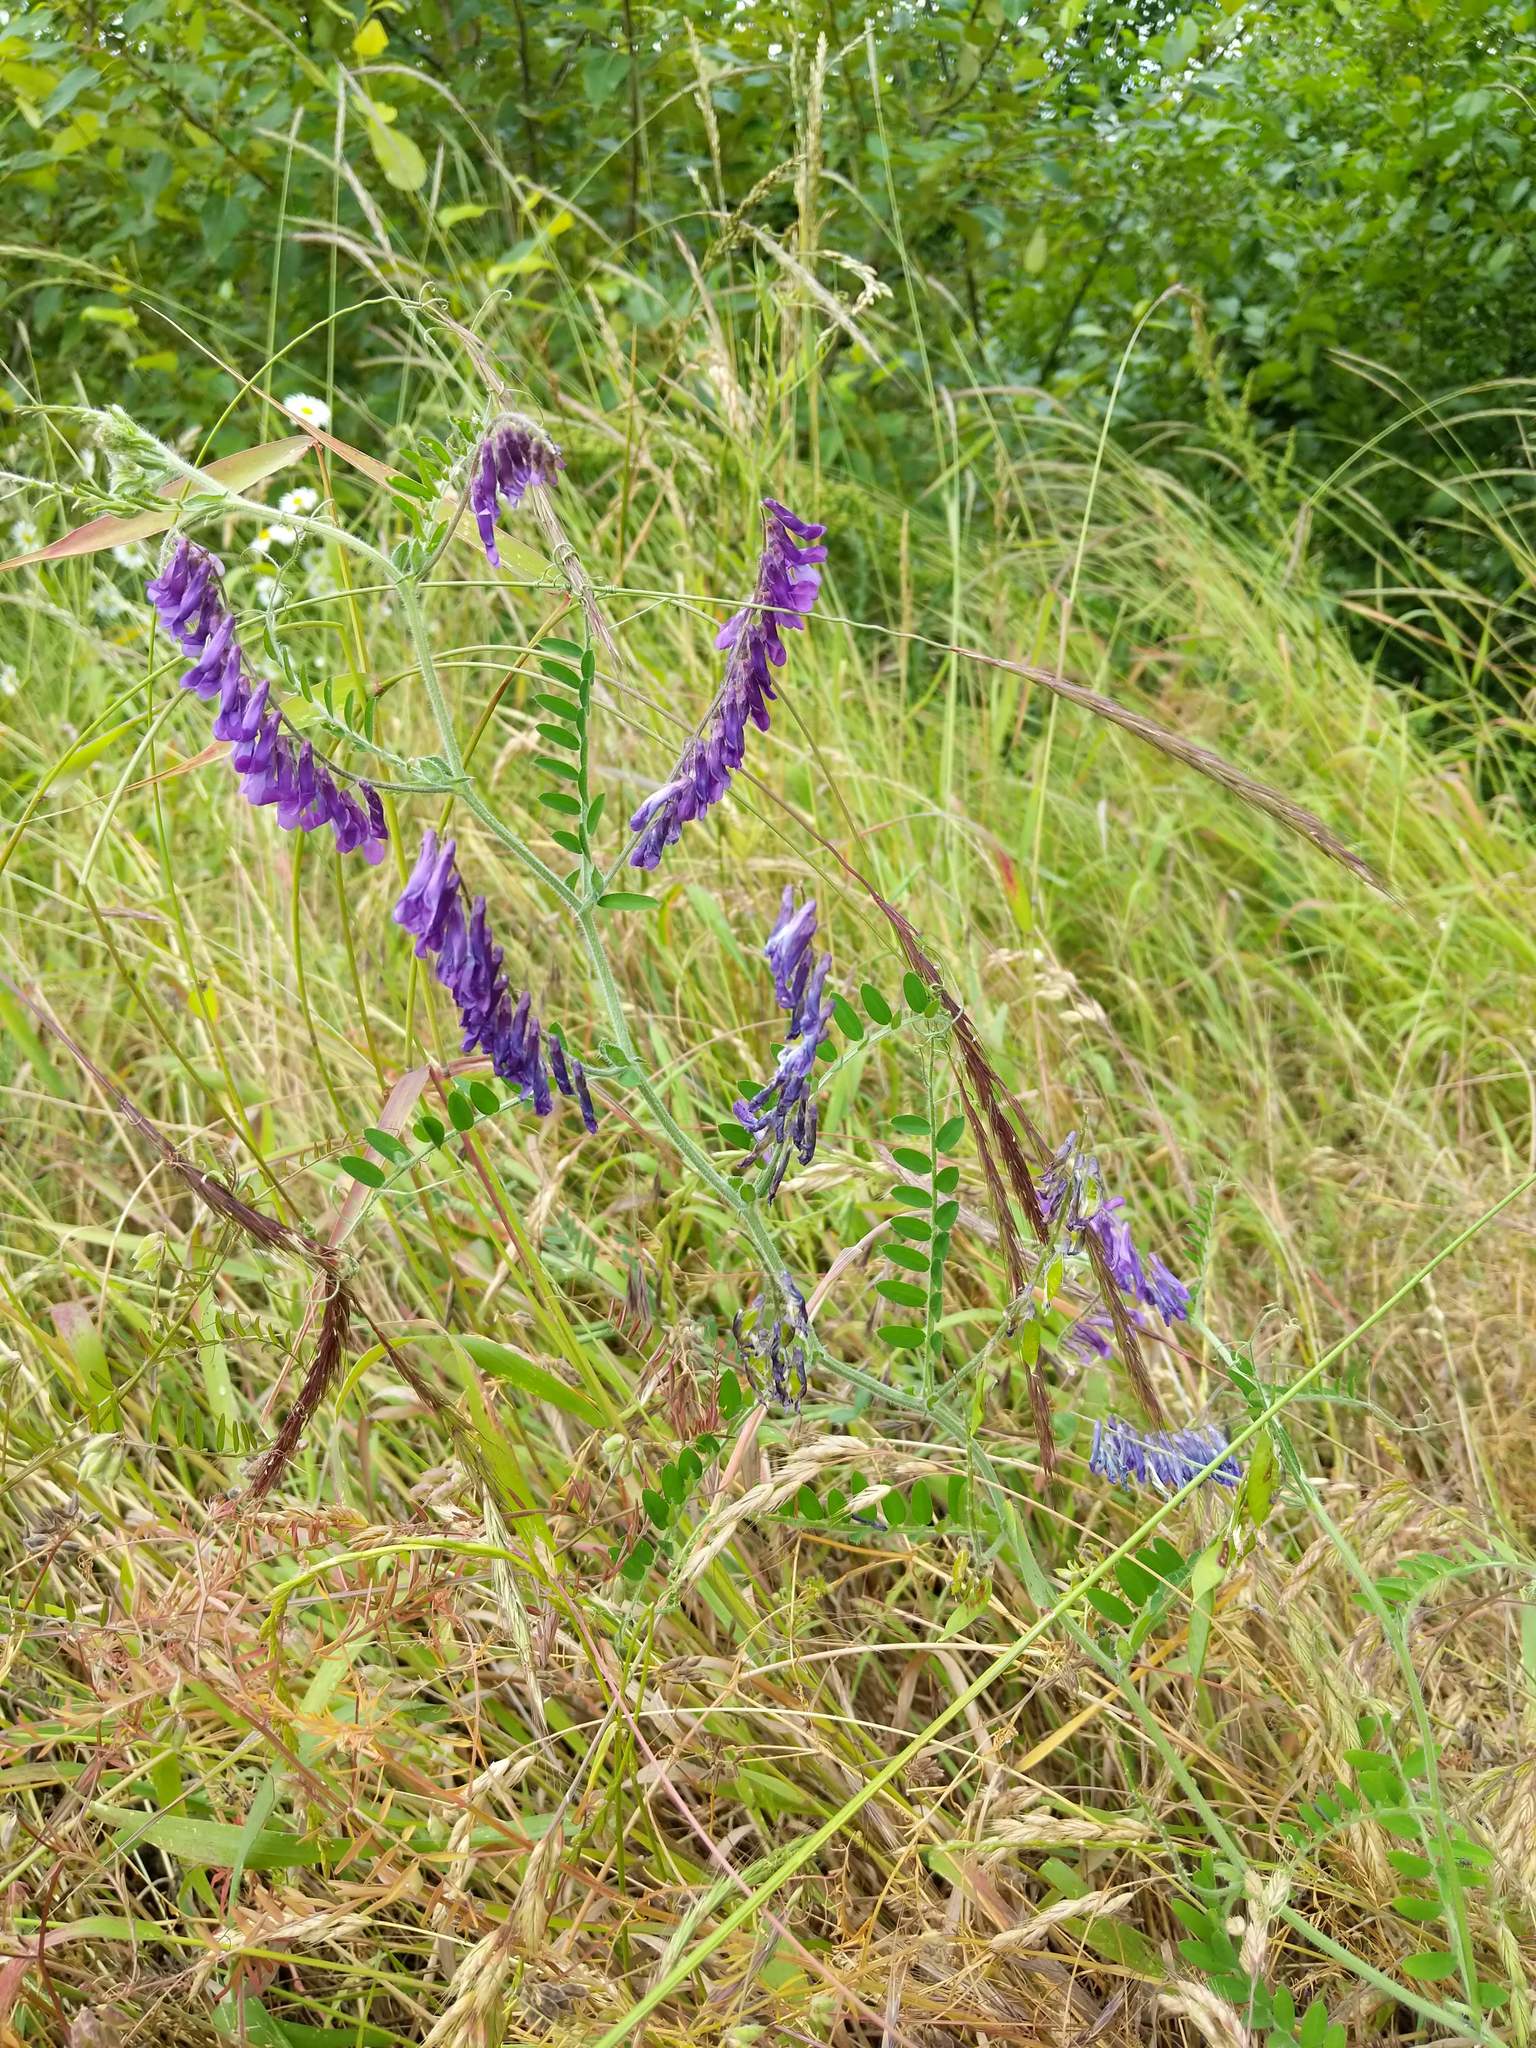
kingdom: Plantae
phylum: Tracheophyta
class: Magnoliopsida
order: Fabales
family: Fabaceae
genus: Vicia
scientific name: Vicia villosa
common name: Fodder vetch
